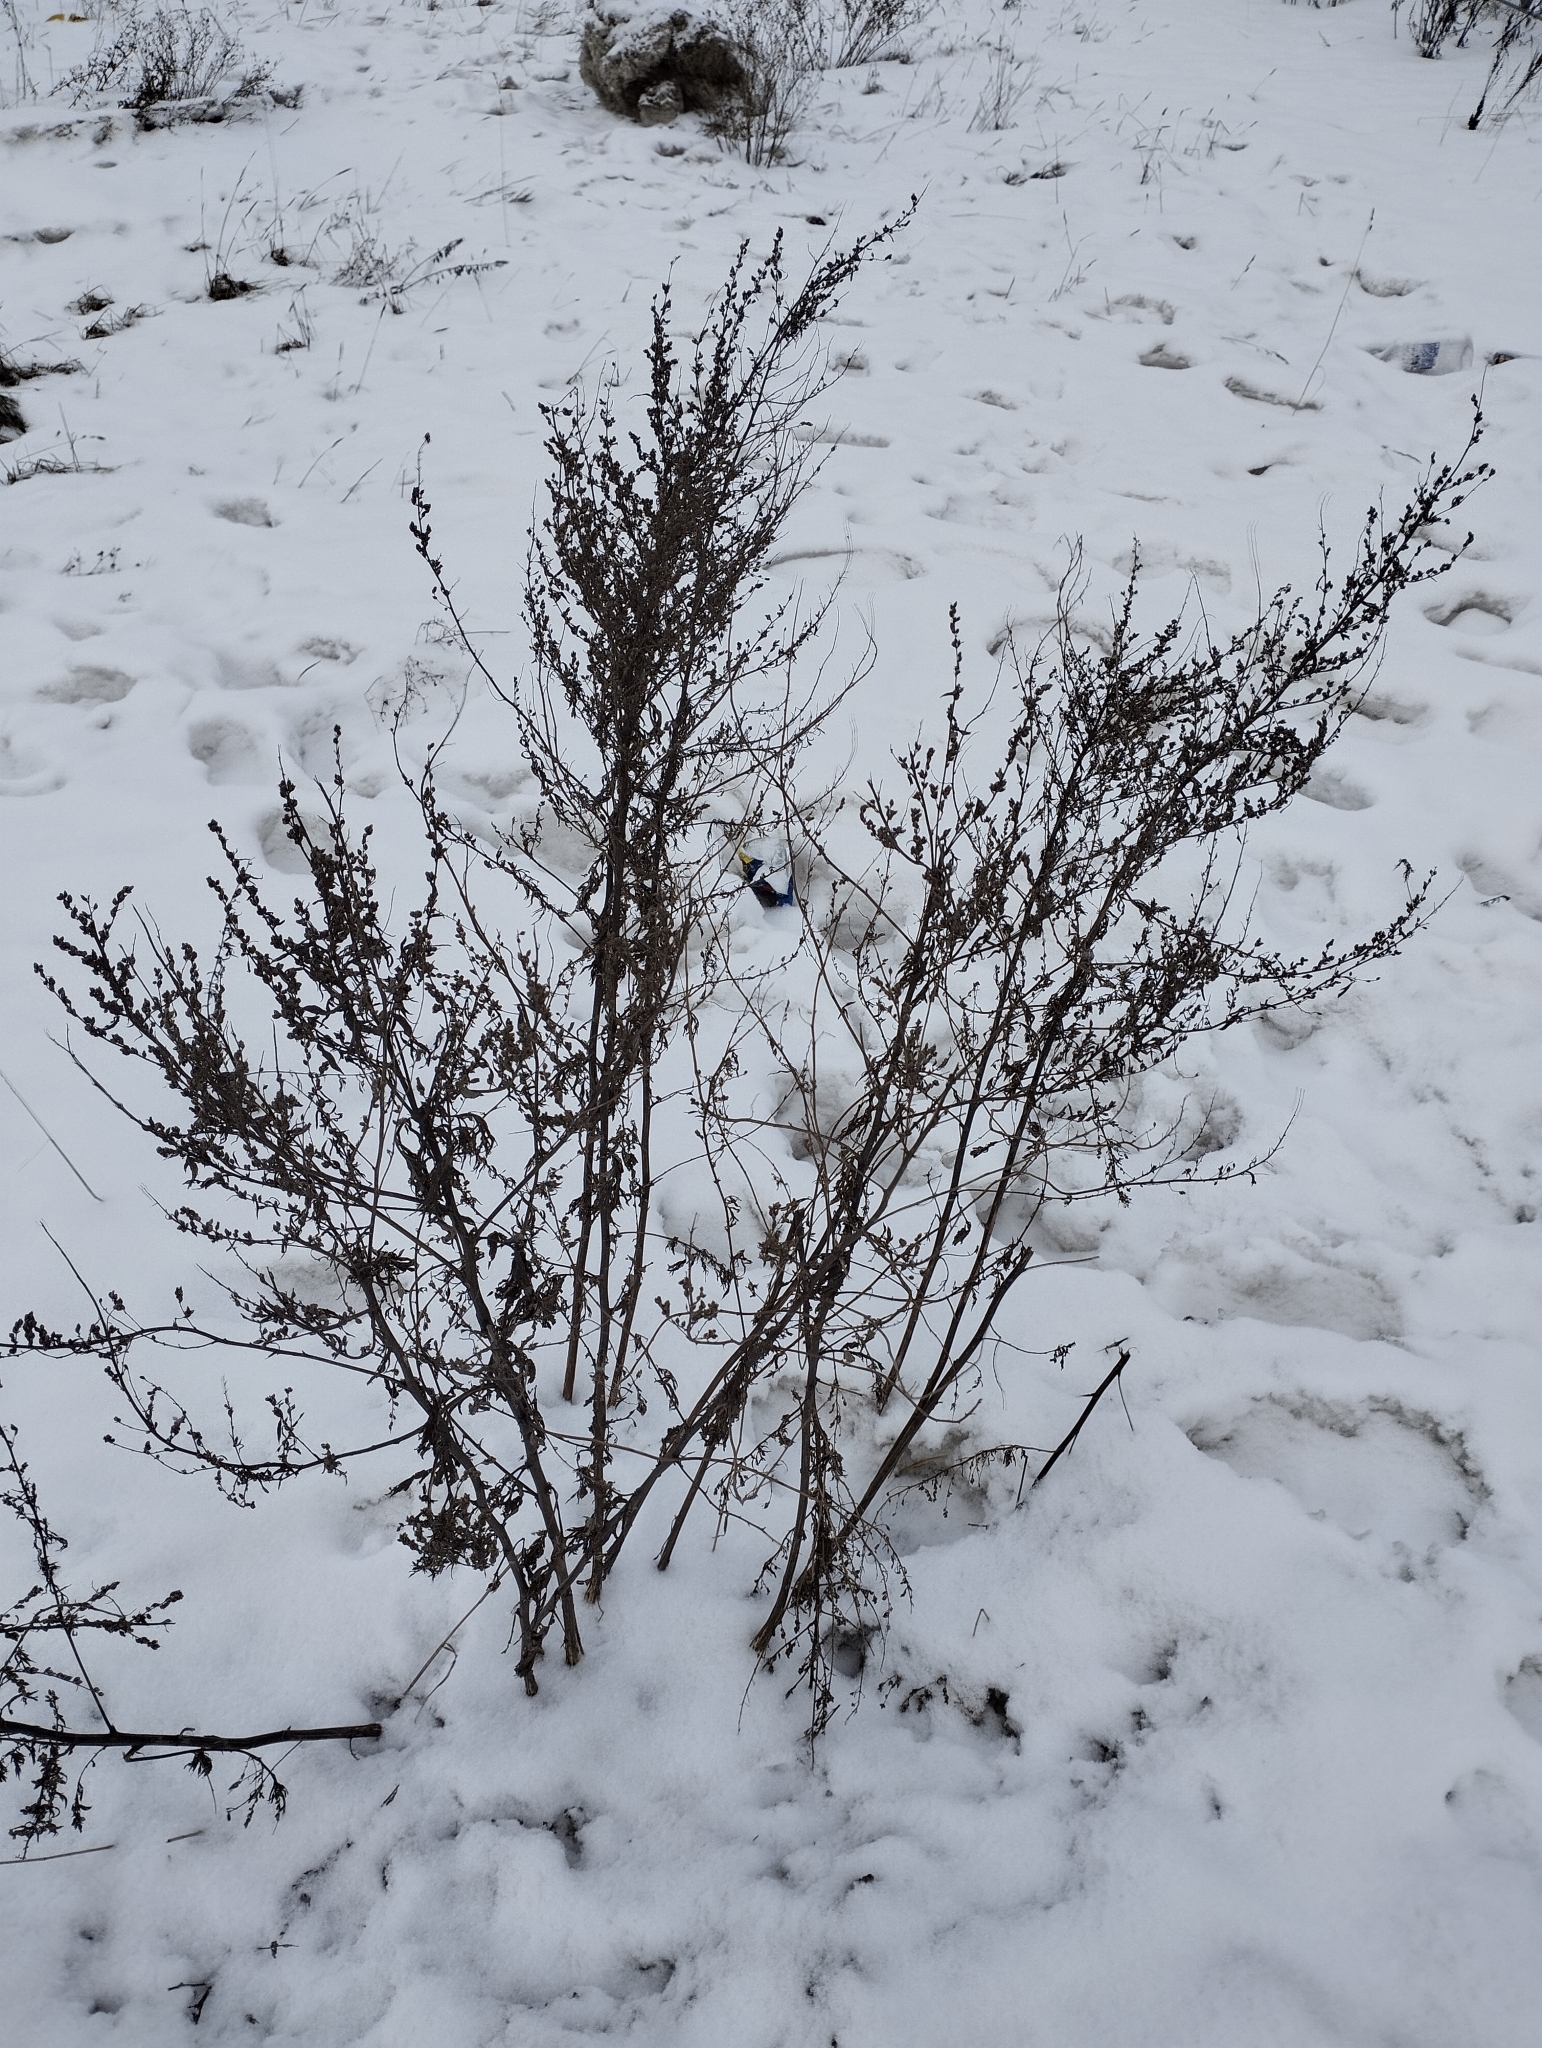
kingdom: Plantae
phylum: Tracheophyta
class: Magnoliopsida
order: Asterales
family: Asteraceae
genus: Artemisia
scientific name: Artemisia vulgaris
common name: Mugwort
